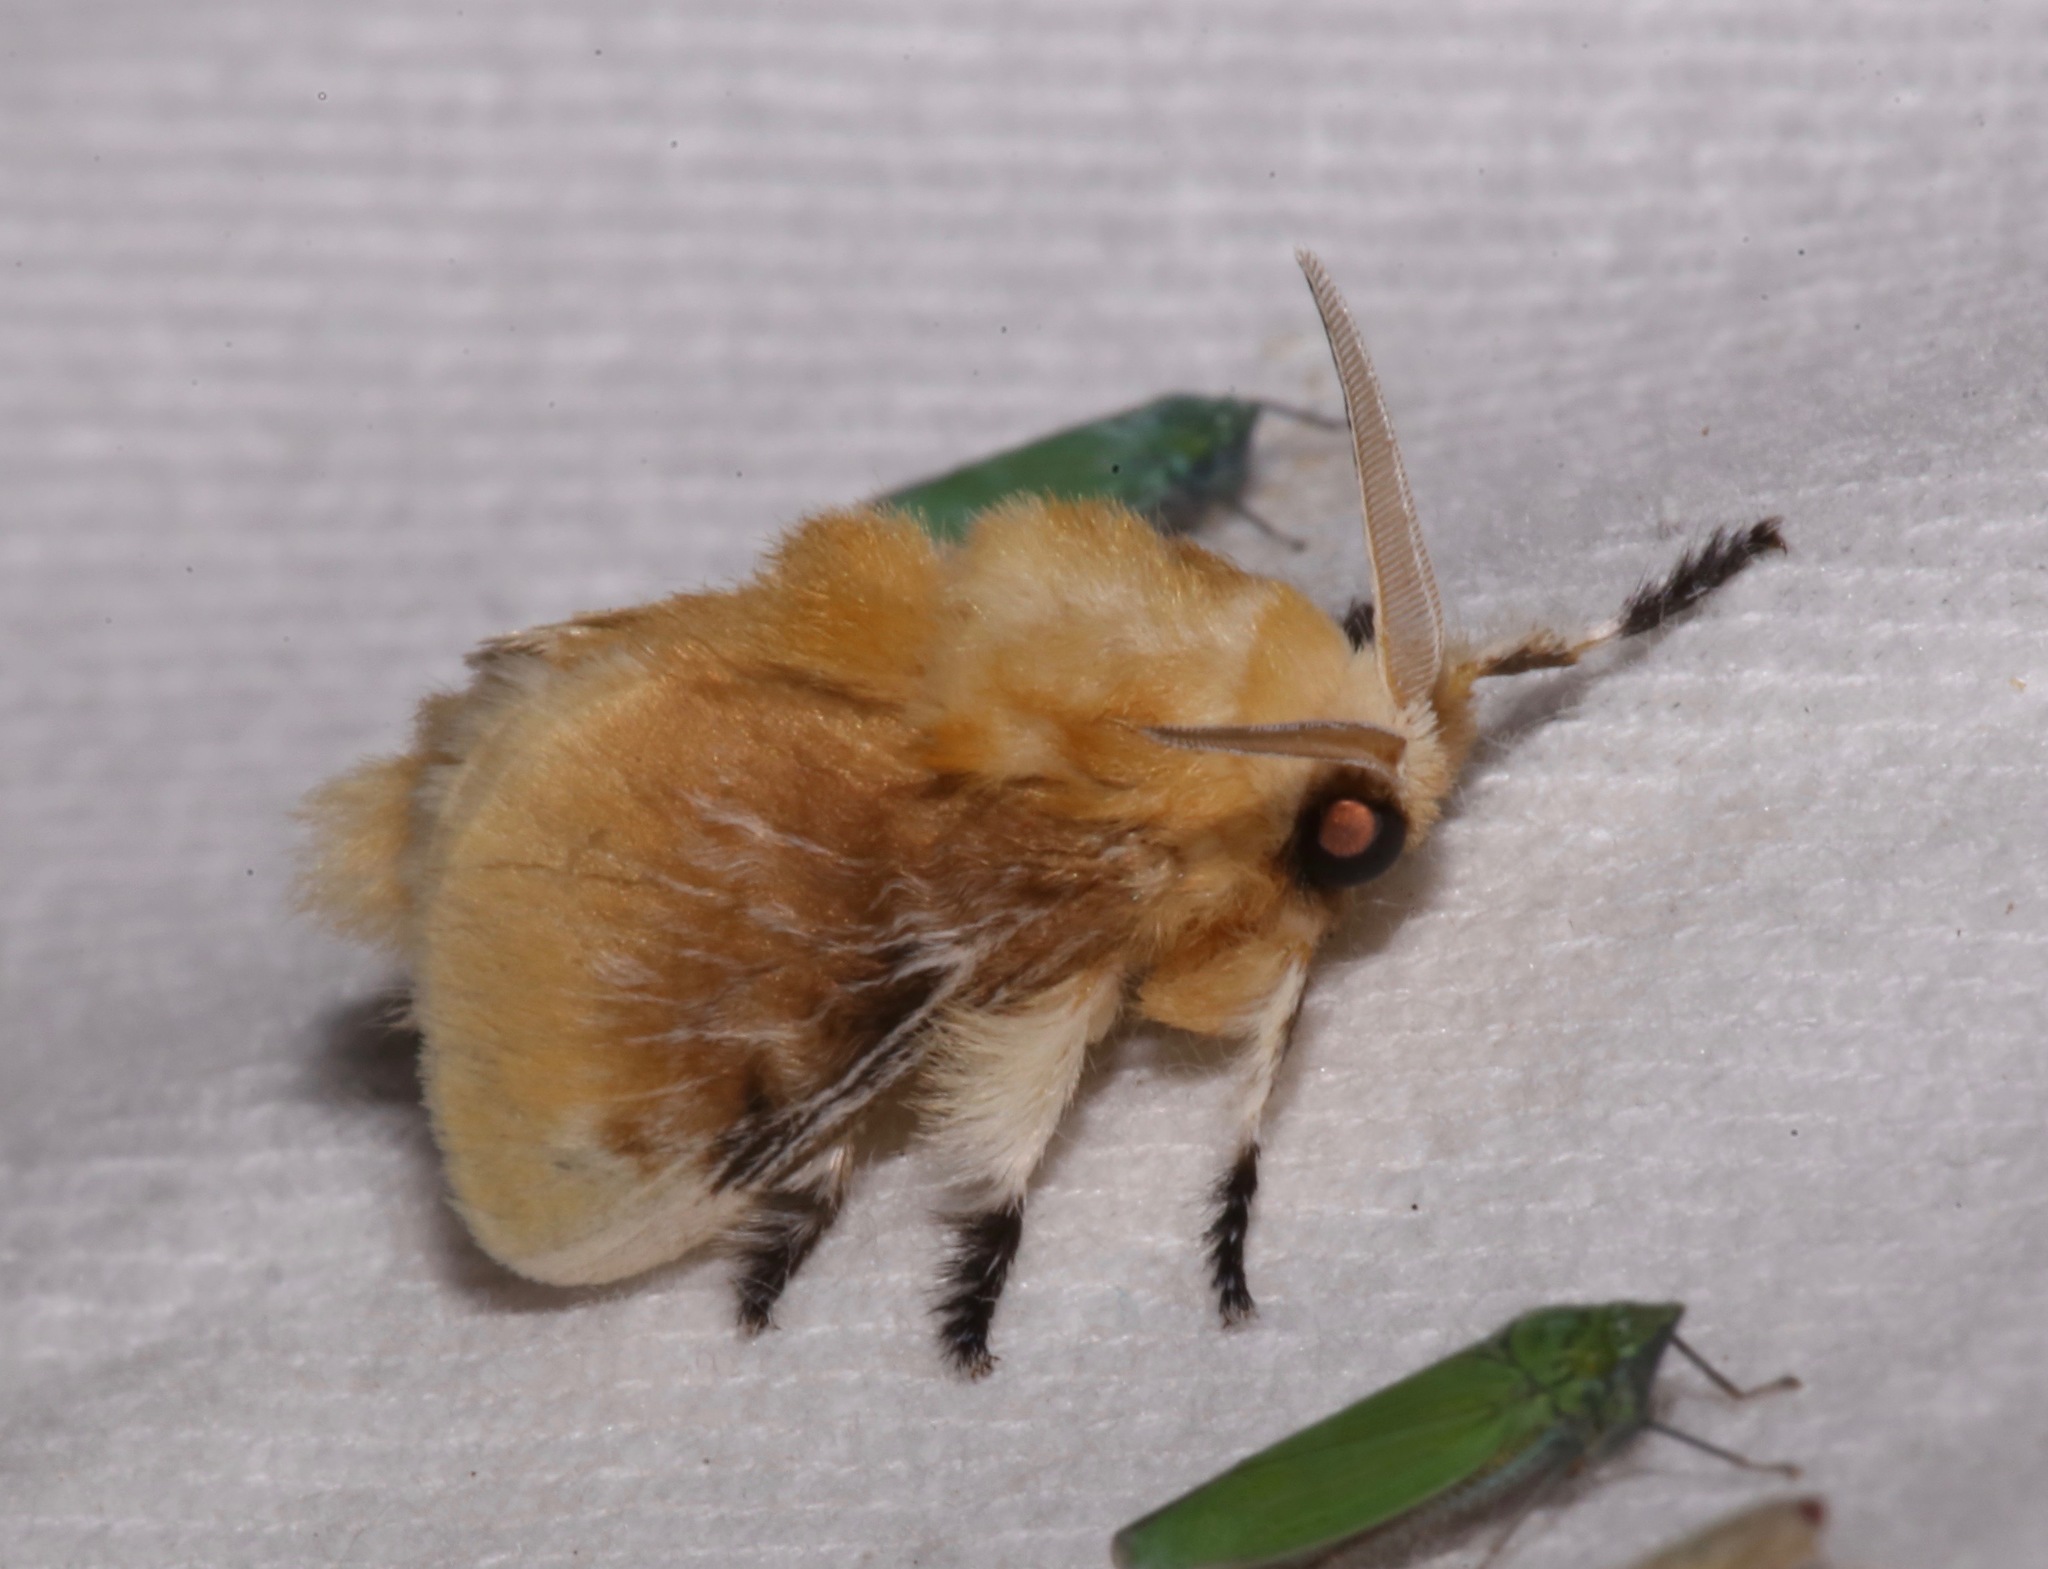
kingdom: Animalia
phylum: Arthropoda
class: Insecta
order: Lepidoptera
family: Megalopygidae
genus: Megalopyge
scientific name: Megalopyge opercularis
